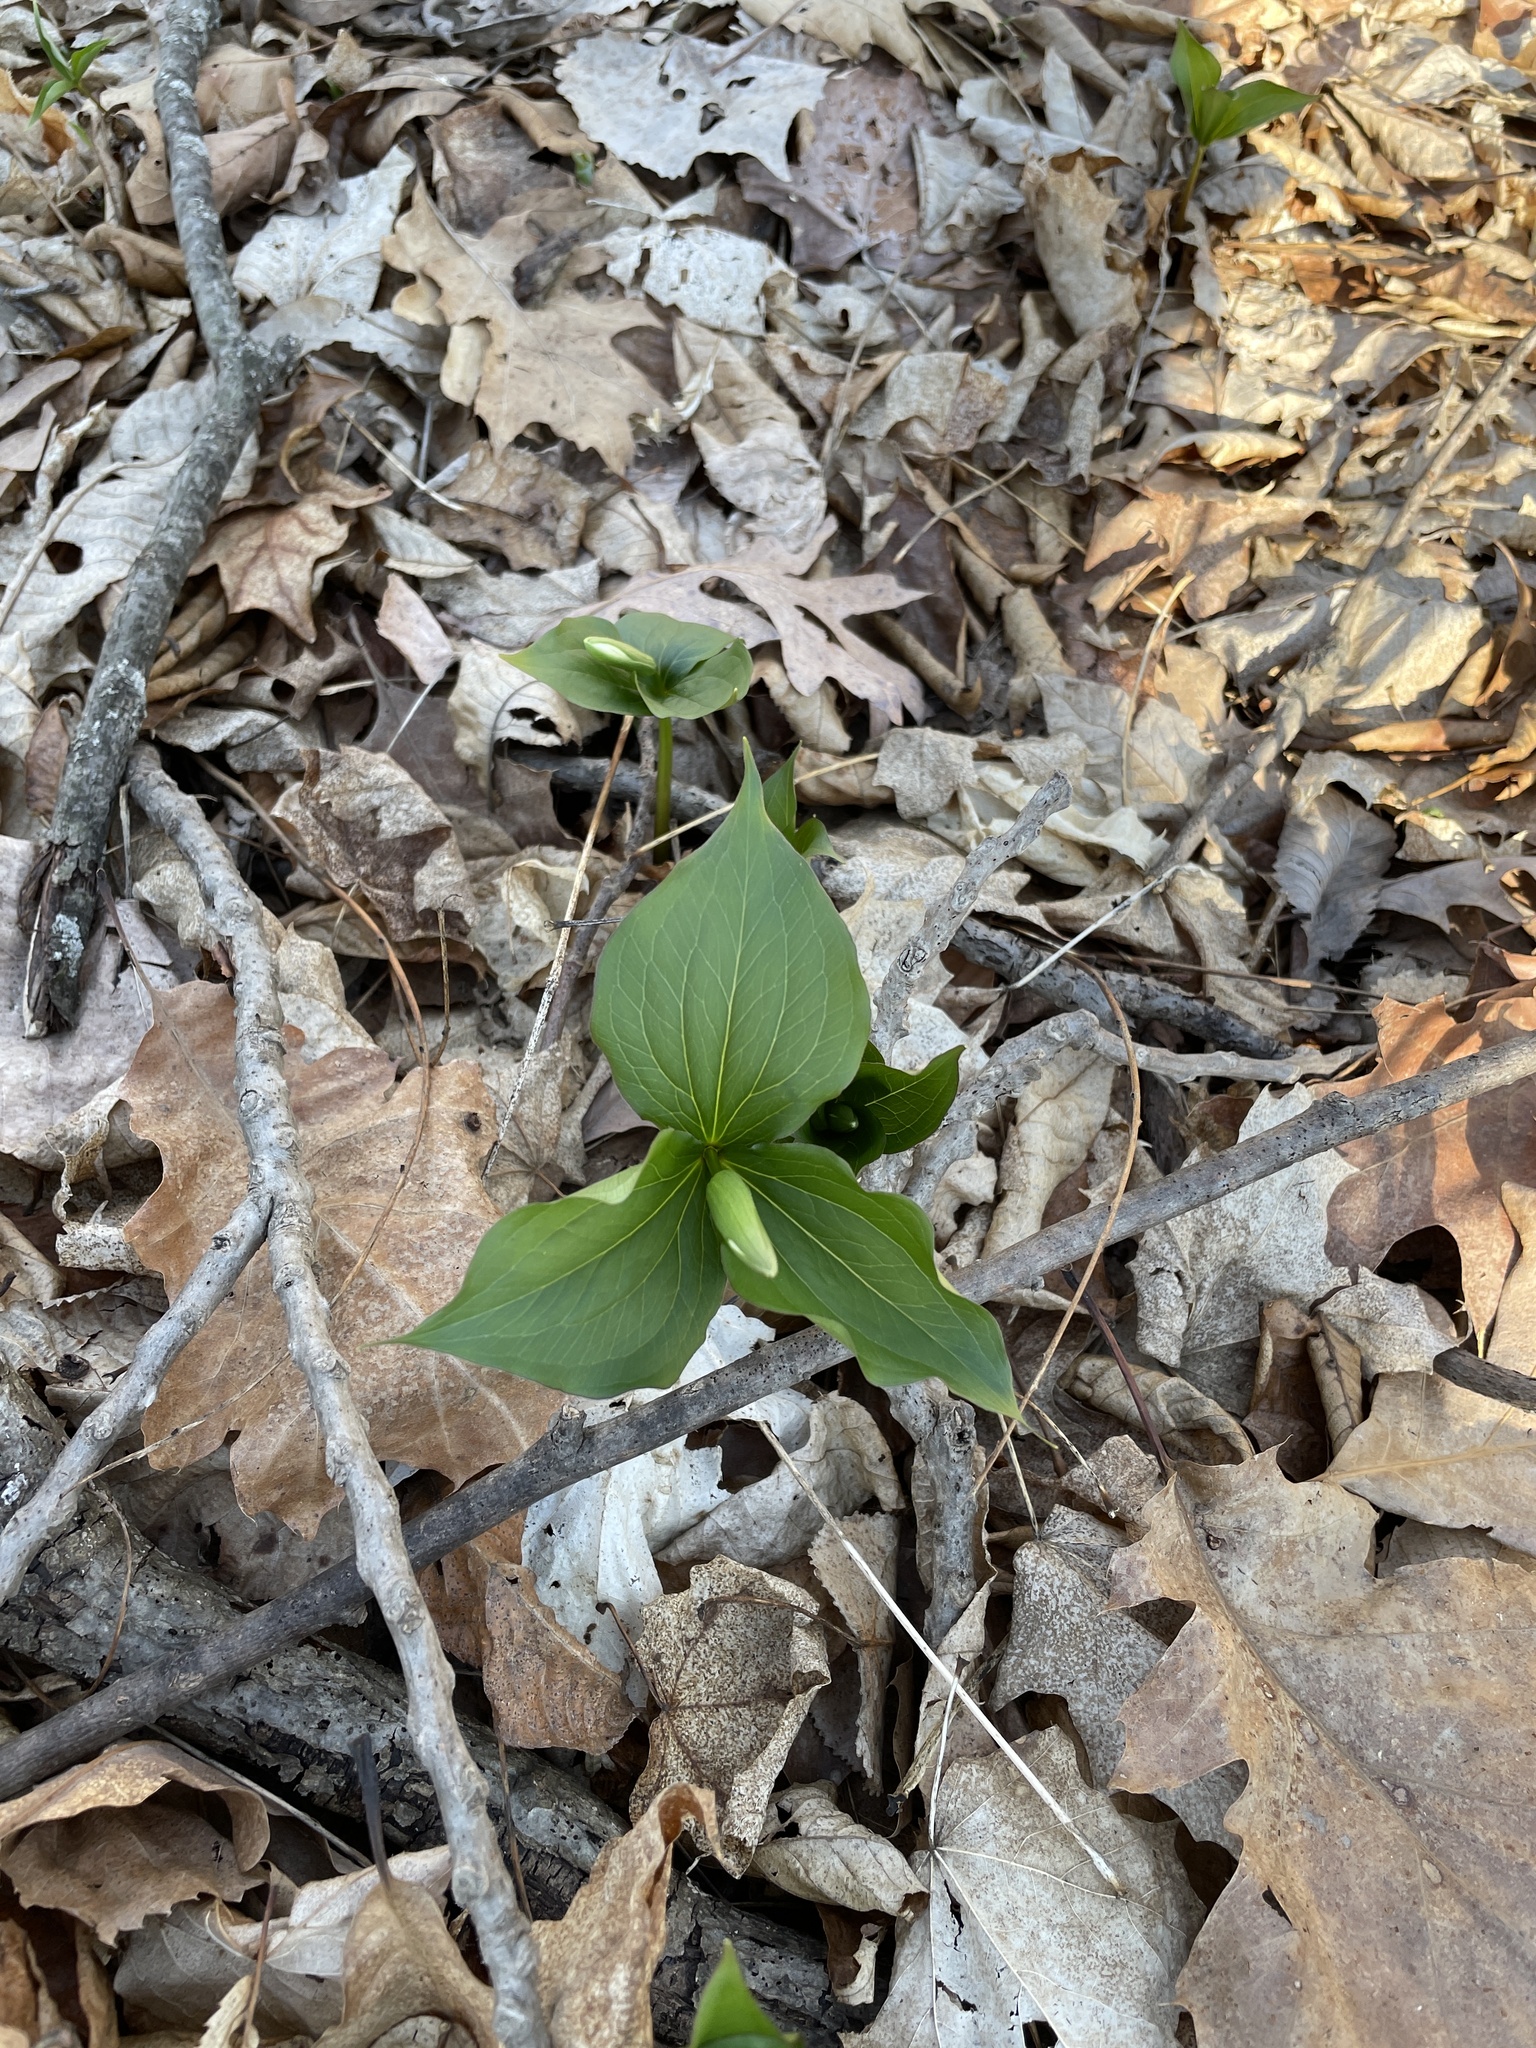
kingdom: Plantae
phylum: Tracheophyta
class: Liliopsida
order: Liliales
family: Melanthiaceae
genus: Trillium
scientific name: Trillium grandiflorum
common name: Great white trillium
